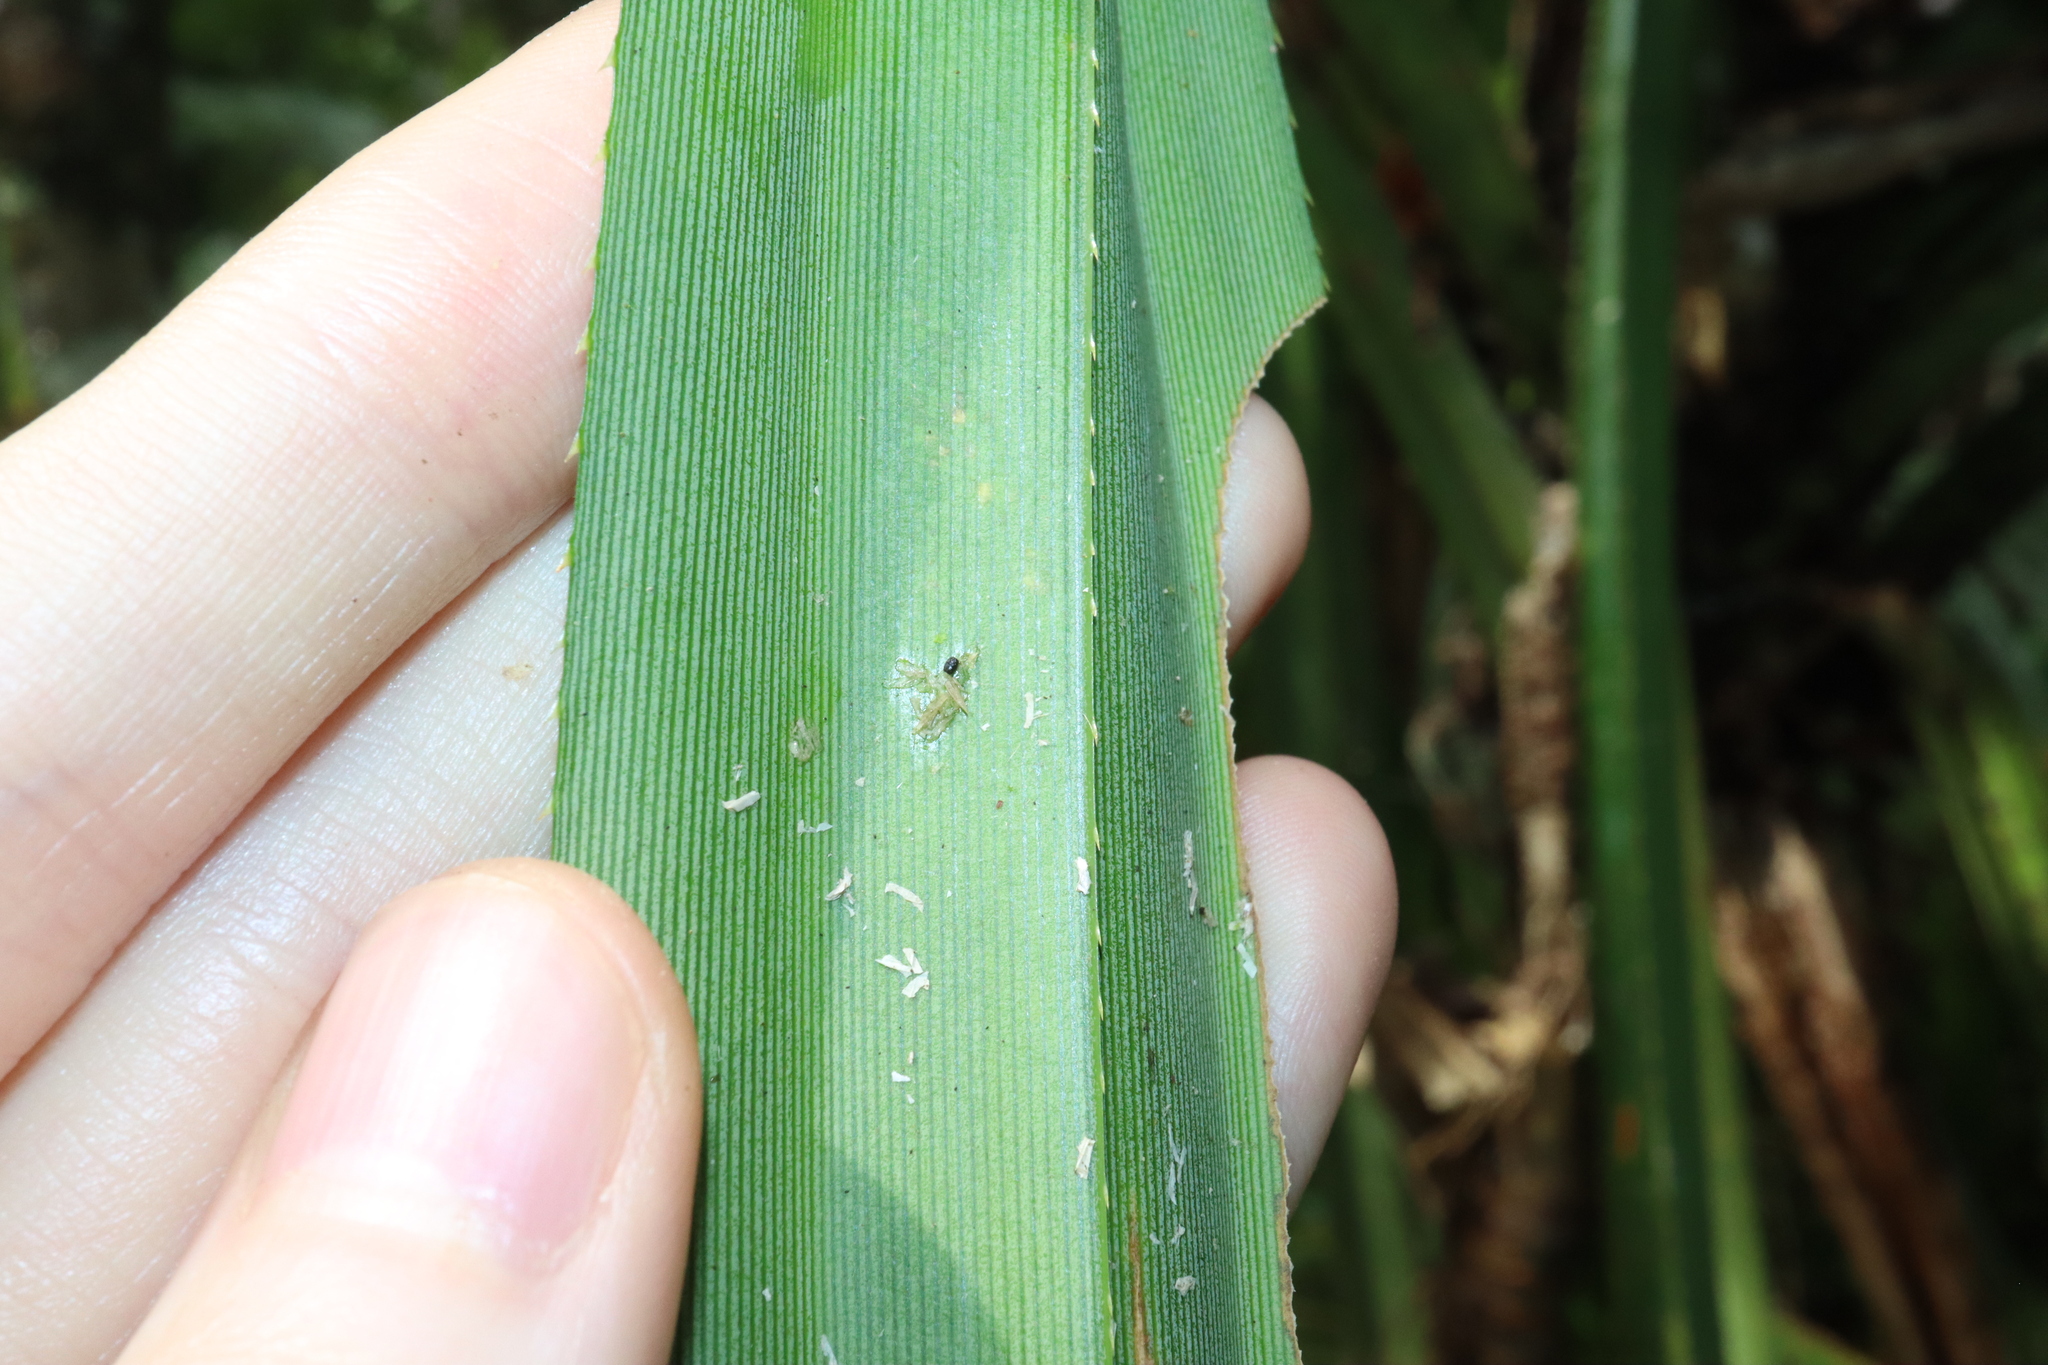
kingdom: Plantae
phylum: Tracheophyta
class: Liliopsida
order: Pandanales
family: Pandanaceae
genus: Benstonea
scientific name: Benstonea monticola
